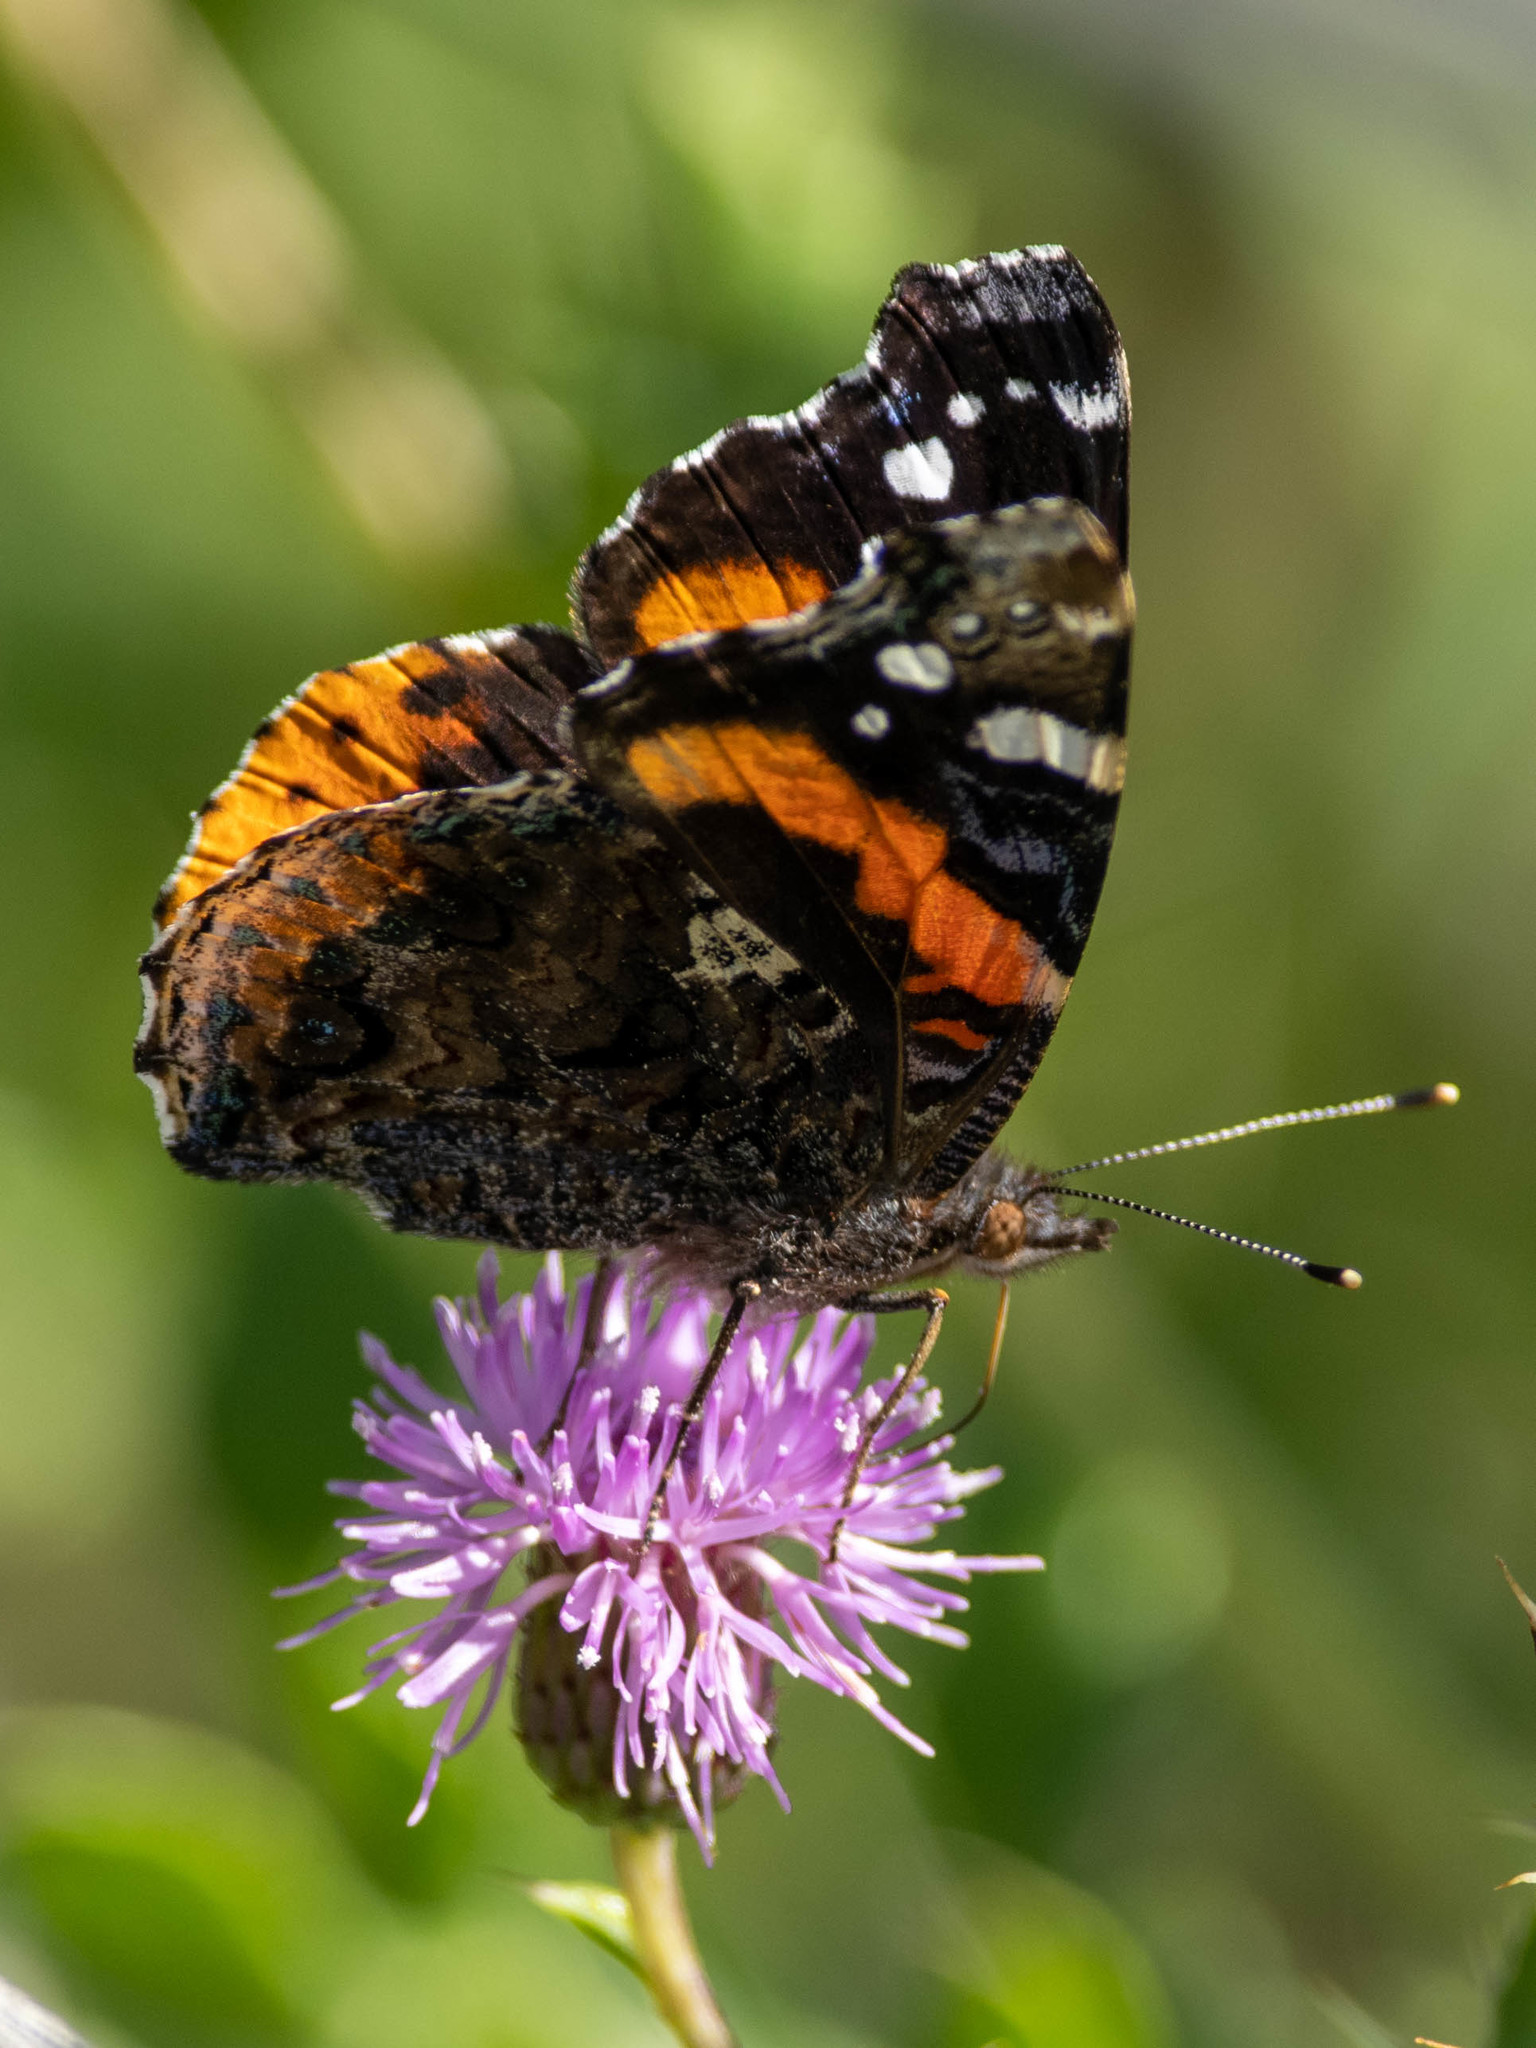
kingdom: Animalia
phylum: Arthropoda
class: Insecta
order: Lepidoptera
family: Nymphalidae
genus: Vanessa
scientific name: Vanessa atalanta
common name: Red admiral
